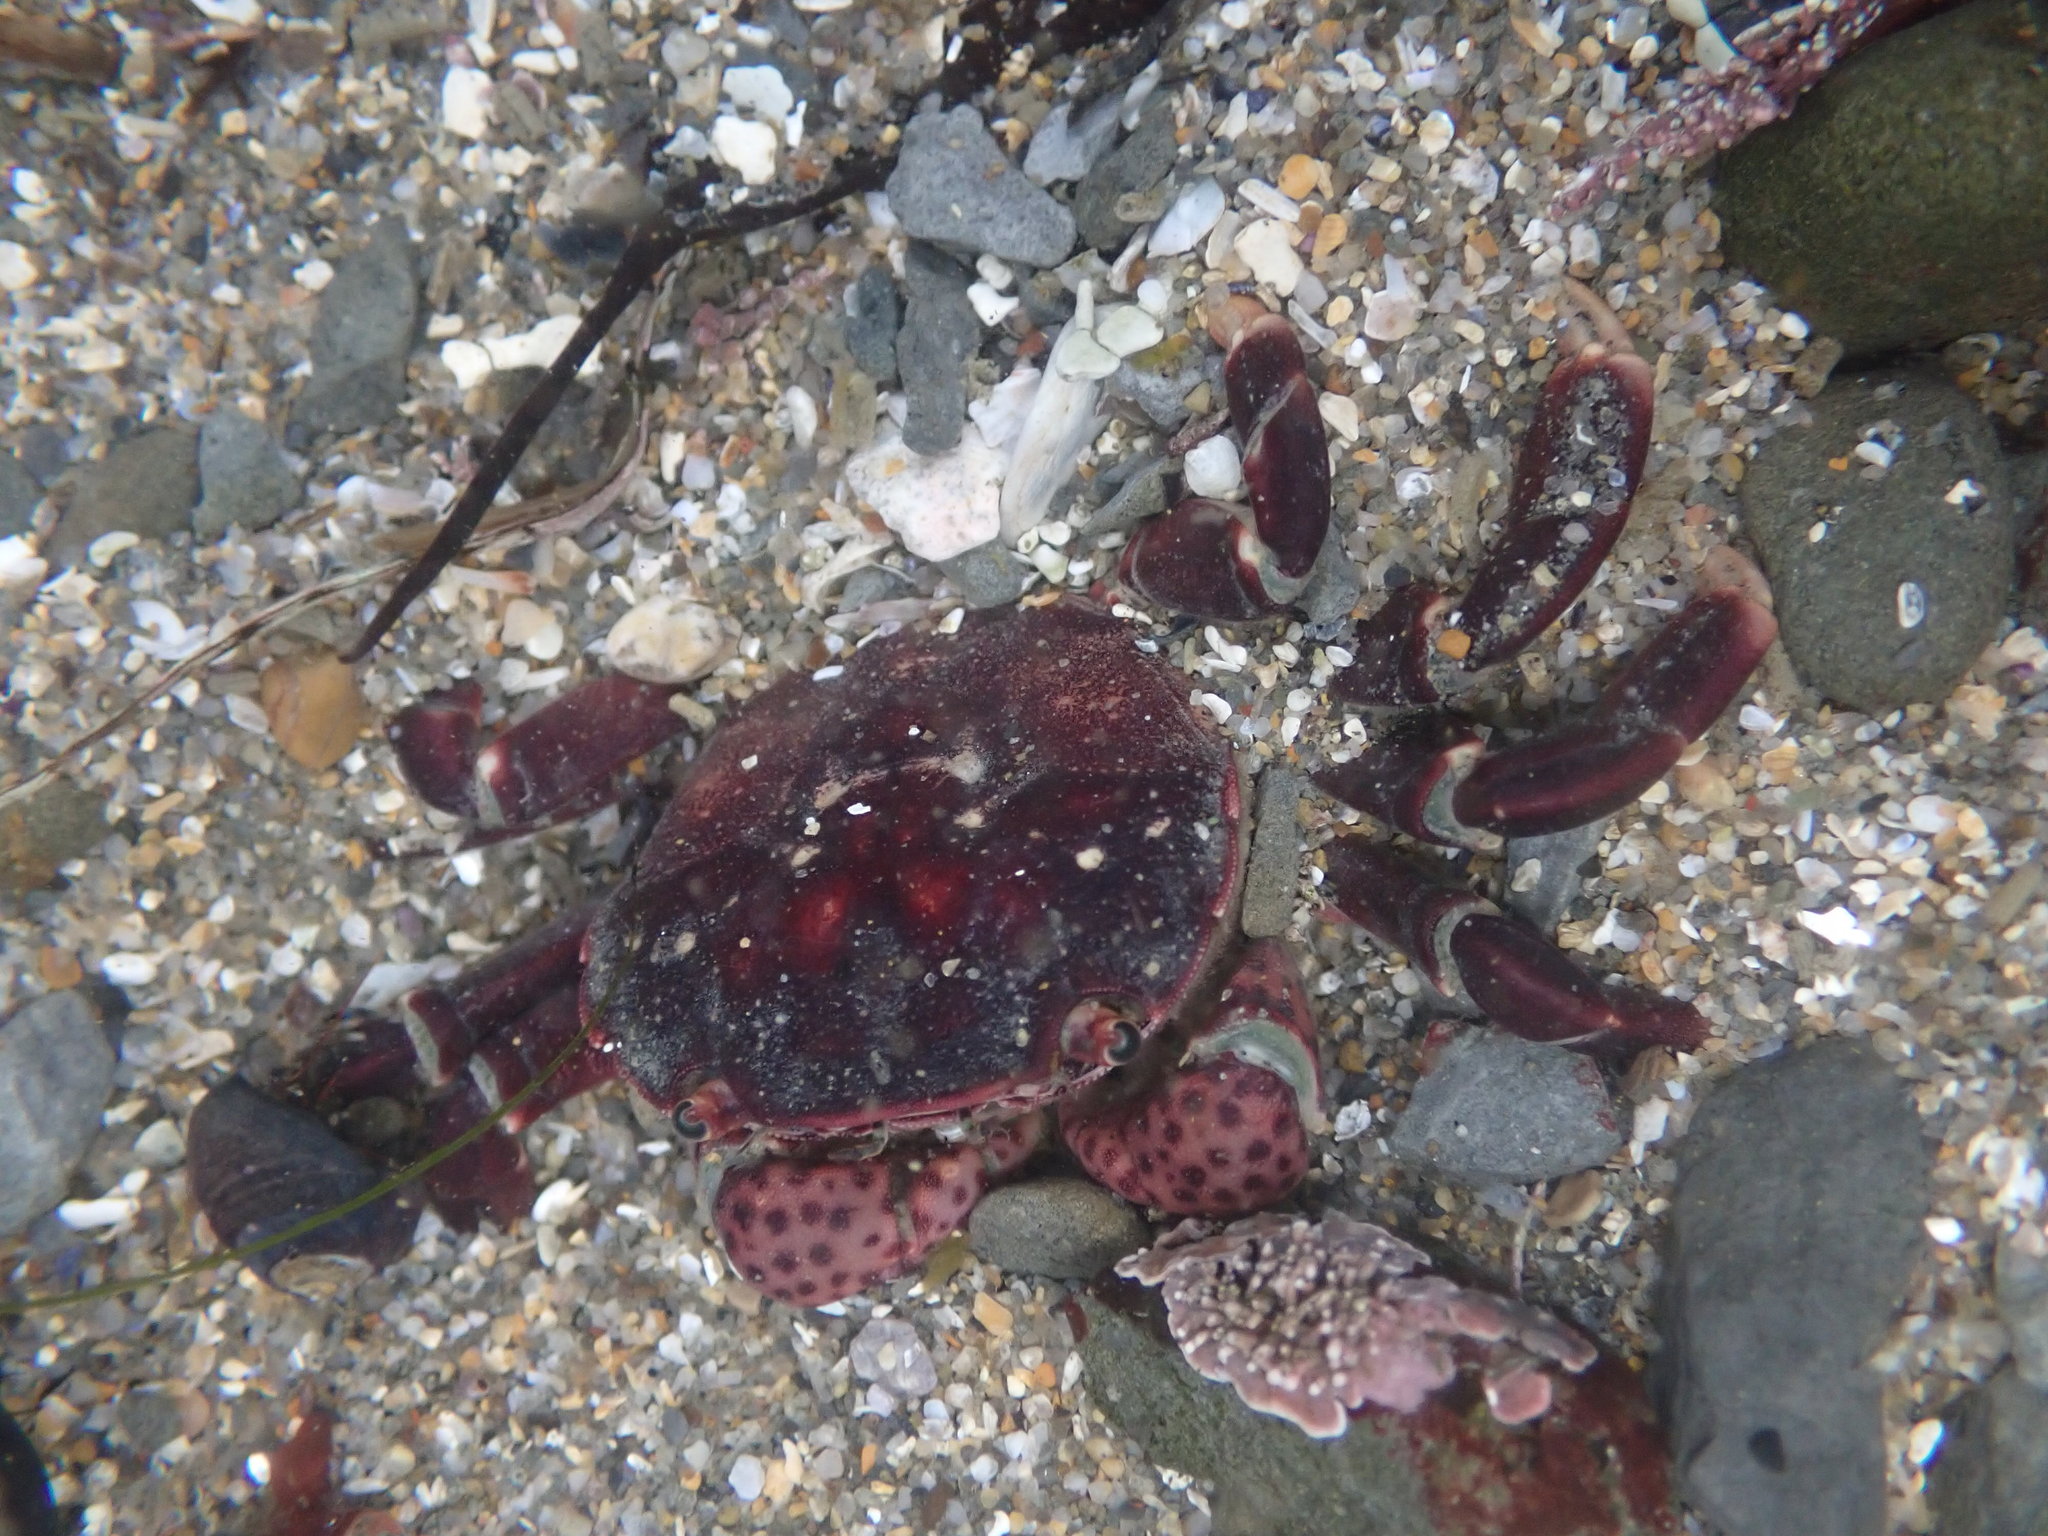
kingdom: Animalia
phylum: Arthropoda
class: Malacostraca
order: Decapoda
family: Varunidae
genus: Hemigrapsus
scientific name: Hemigrapsus nudus
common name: Purple shore crab
